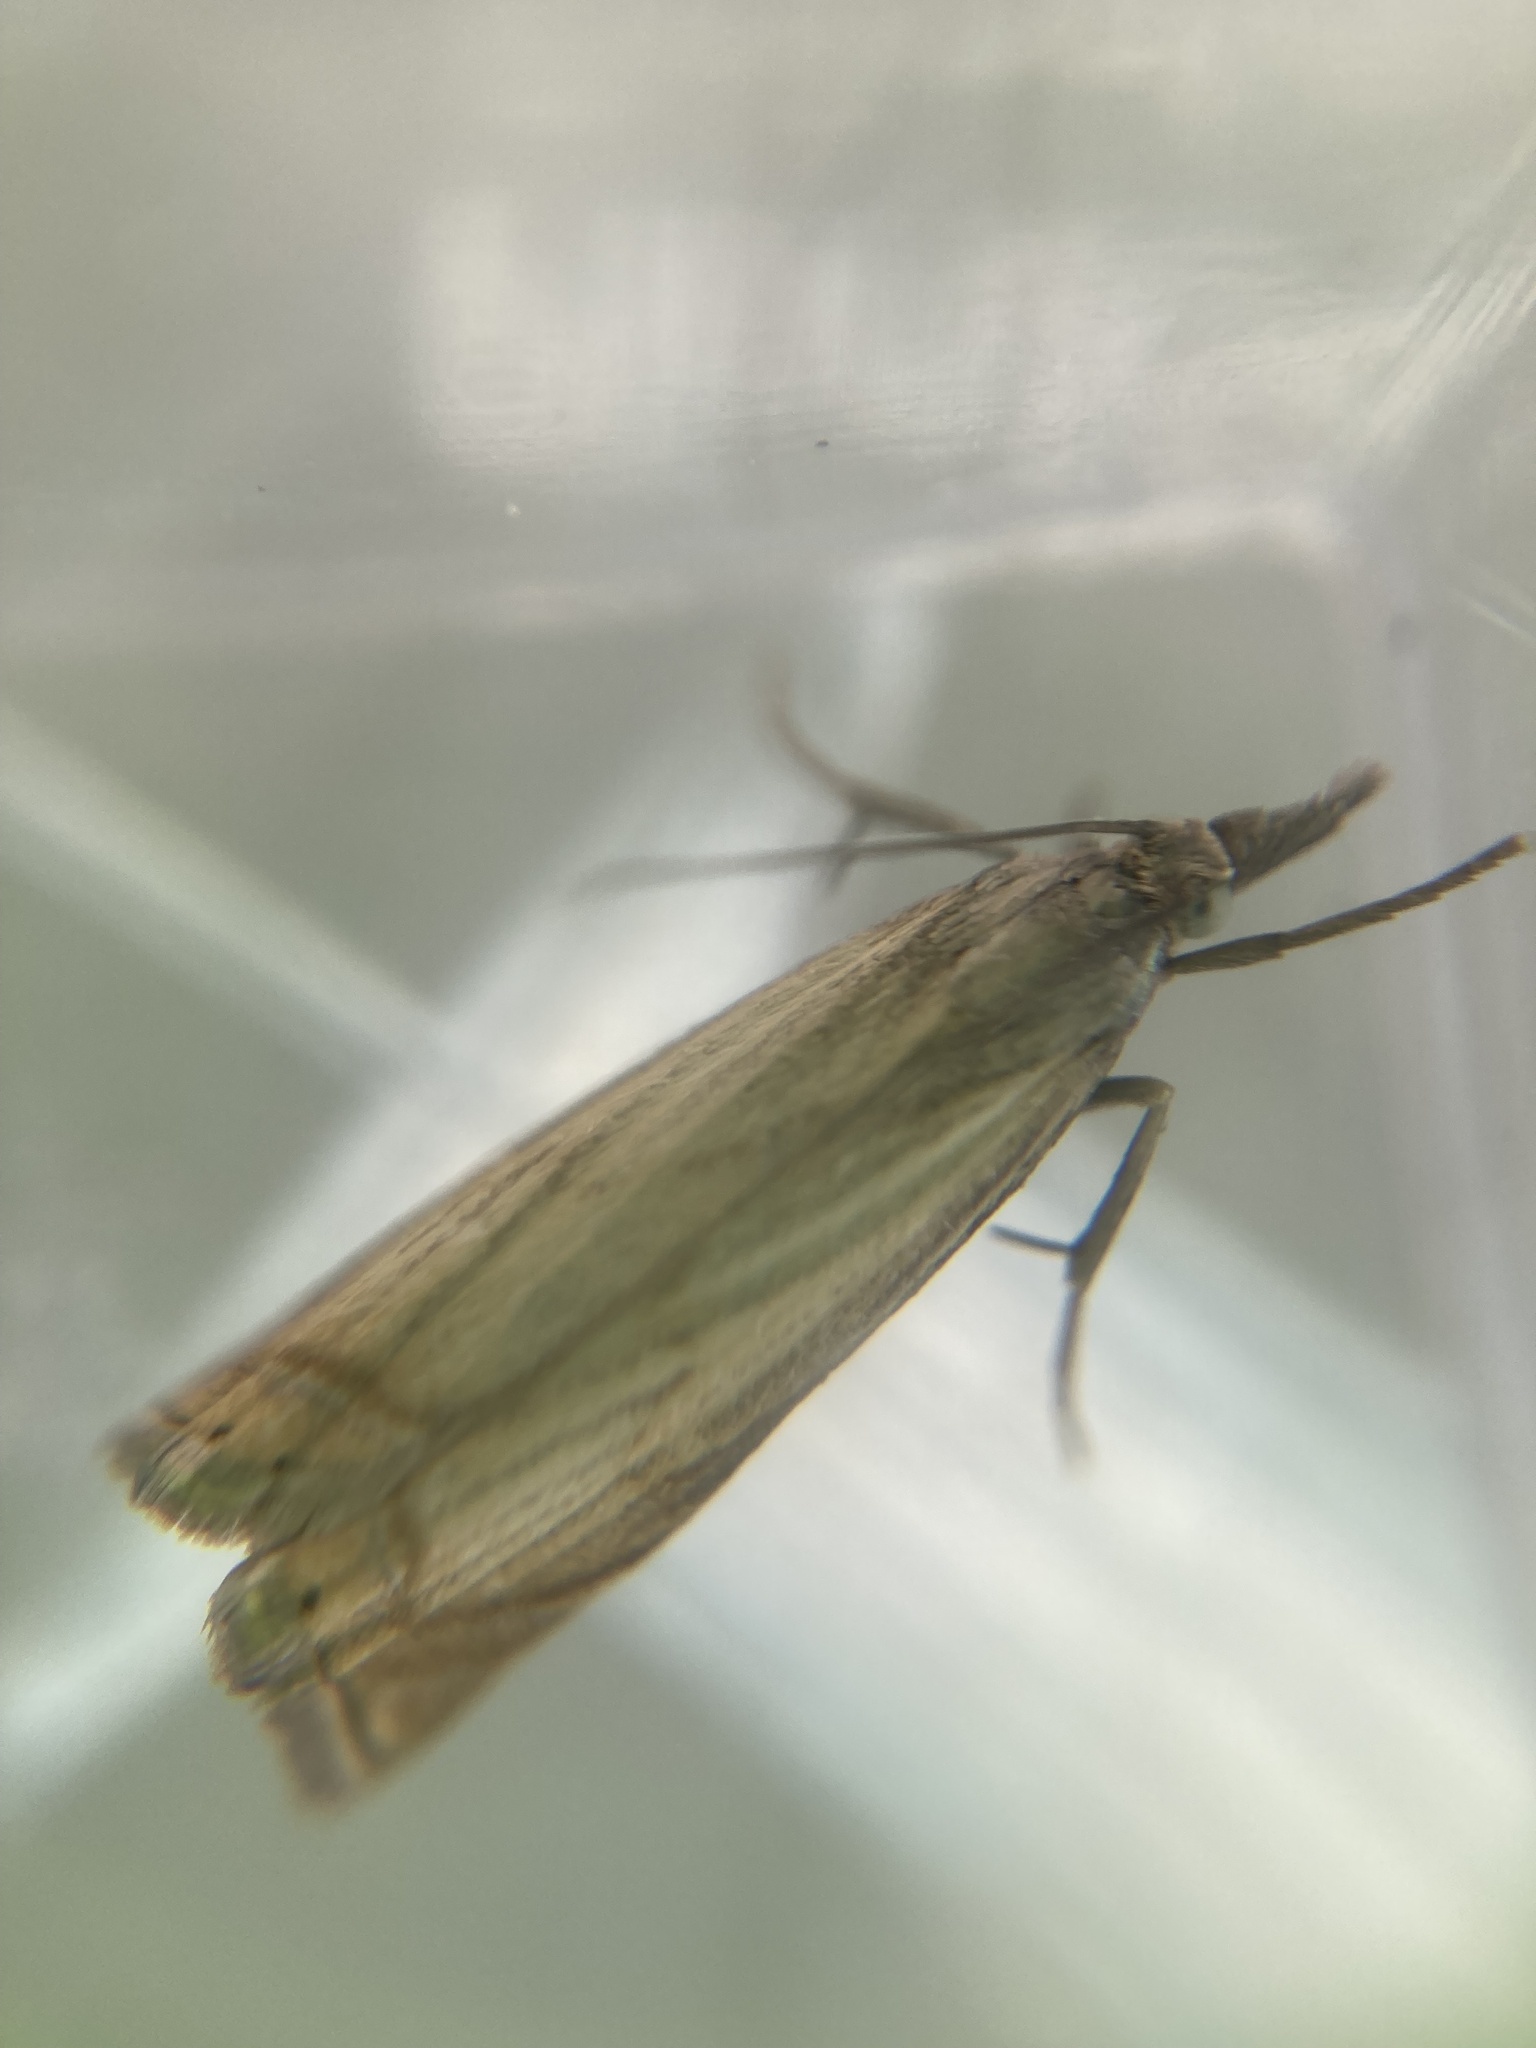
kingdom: Animalia
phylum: Arthropoda
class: Insecta
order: Lepidoptera
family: Crambidae
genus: Chrysoteuchia
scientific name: Chrysoteuchia culmella
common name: Garden grass-veneer
